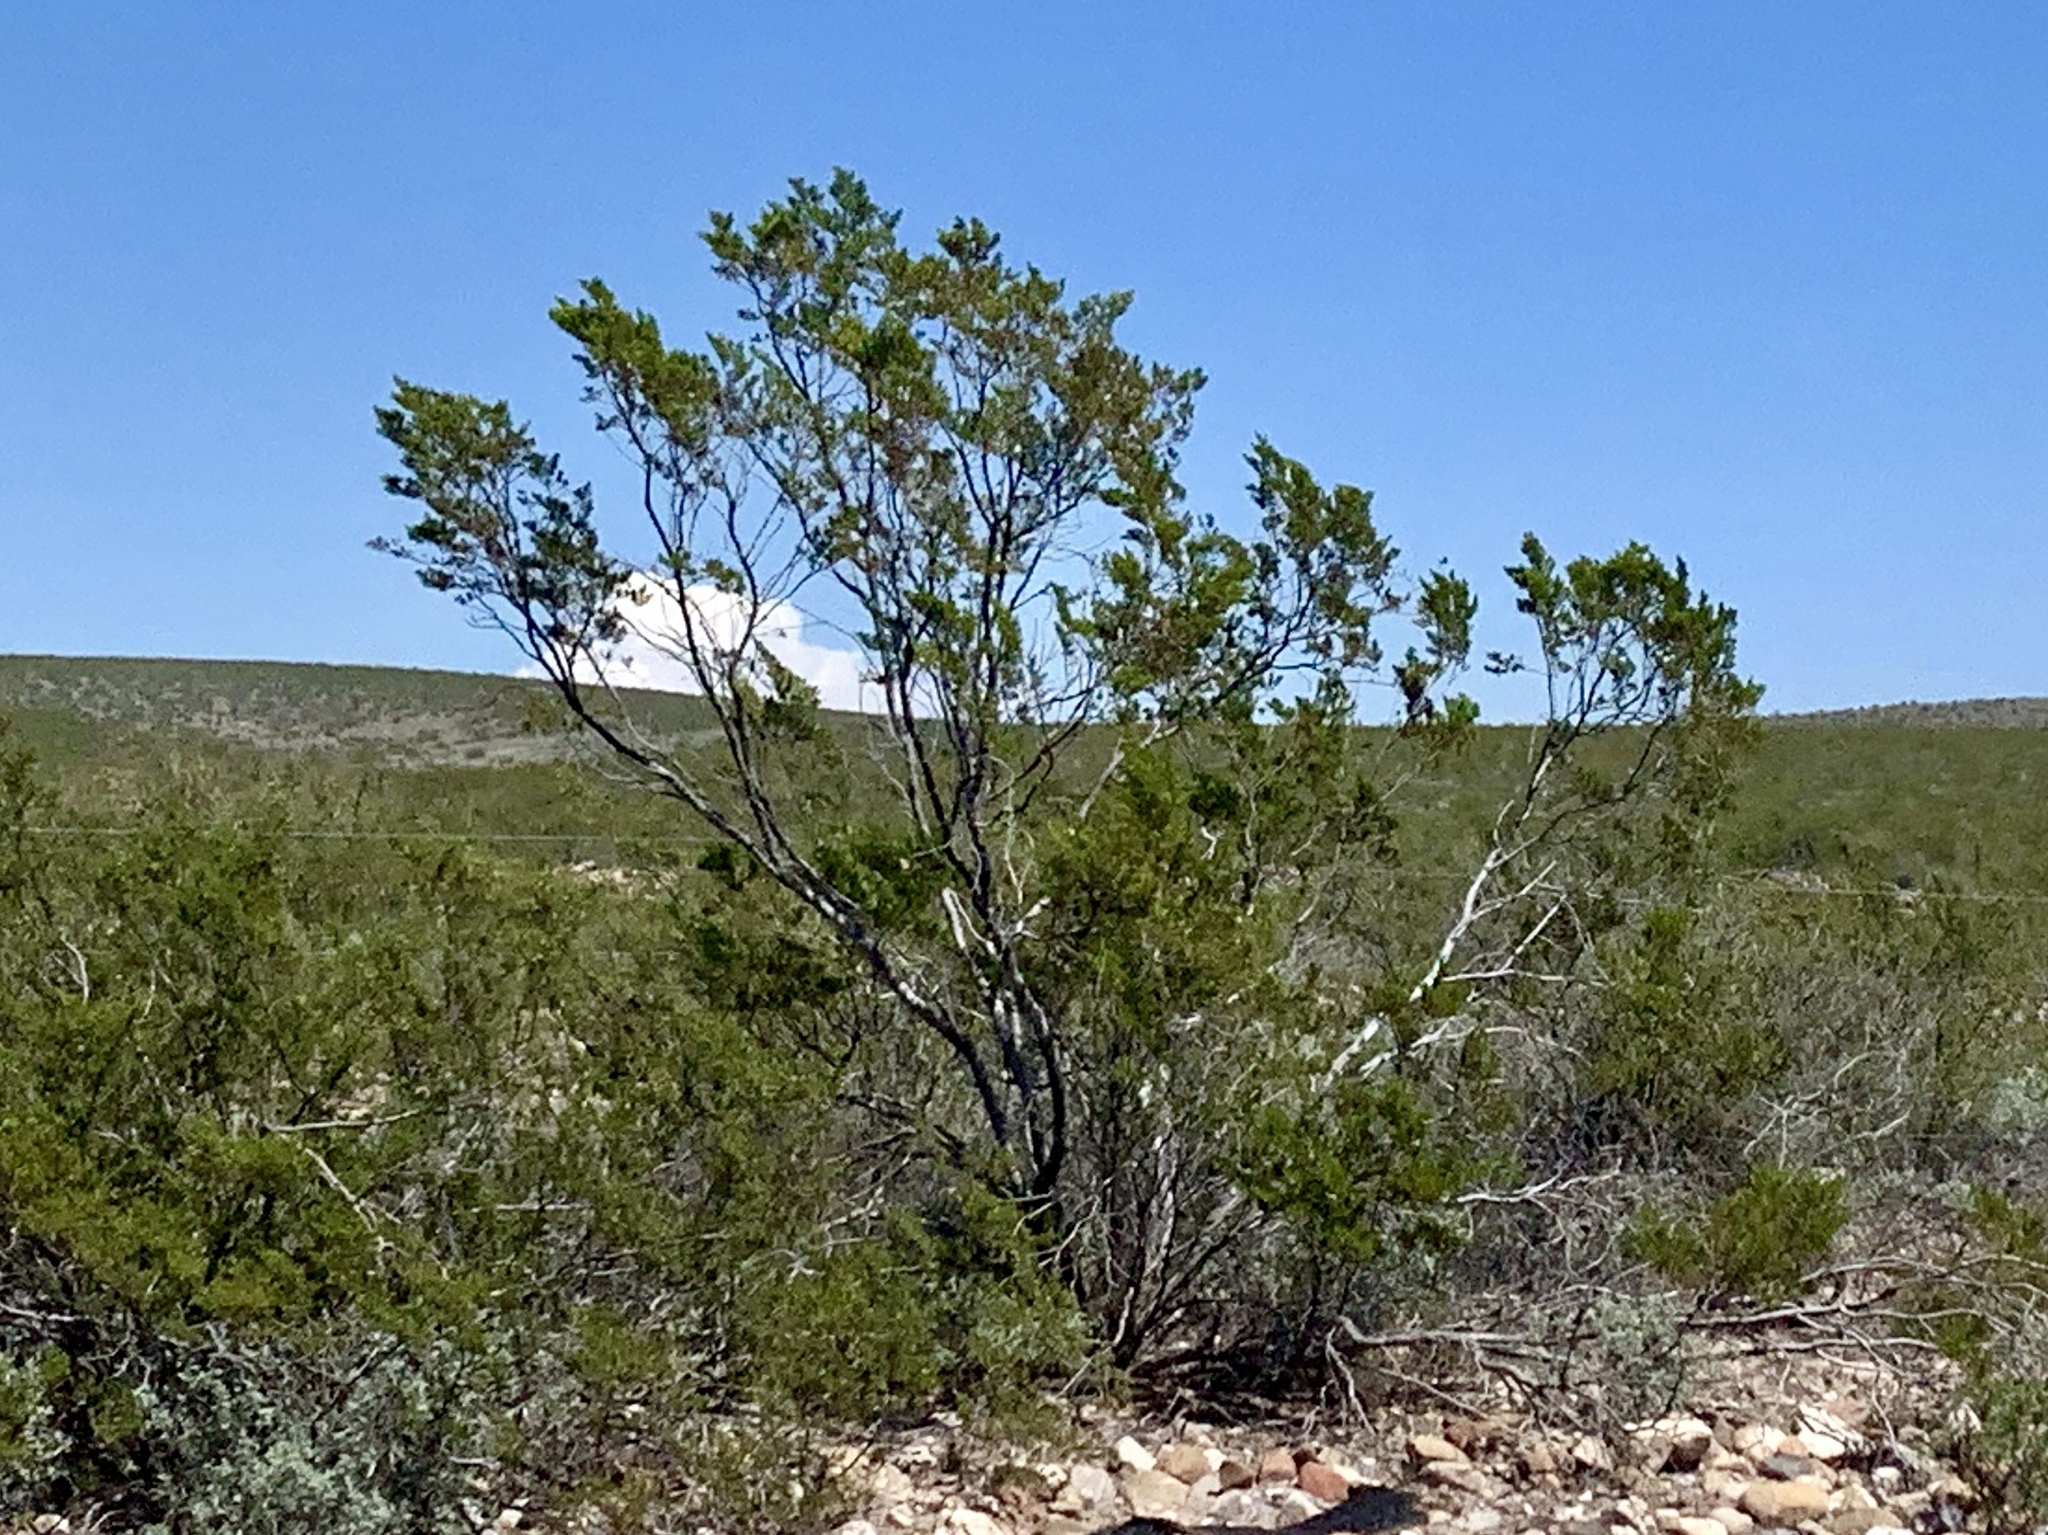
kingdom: Plantae
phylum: Tracheophyta
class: Magnoliopsida
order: Zygophyllales
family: Zygophyllaceae
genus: Larrea
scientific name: Larrea tridentata
